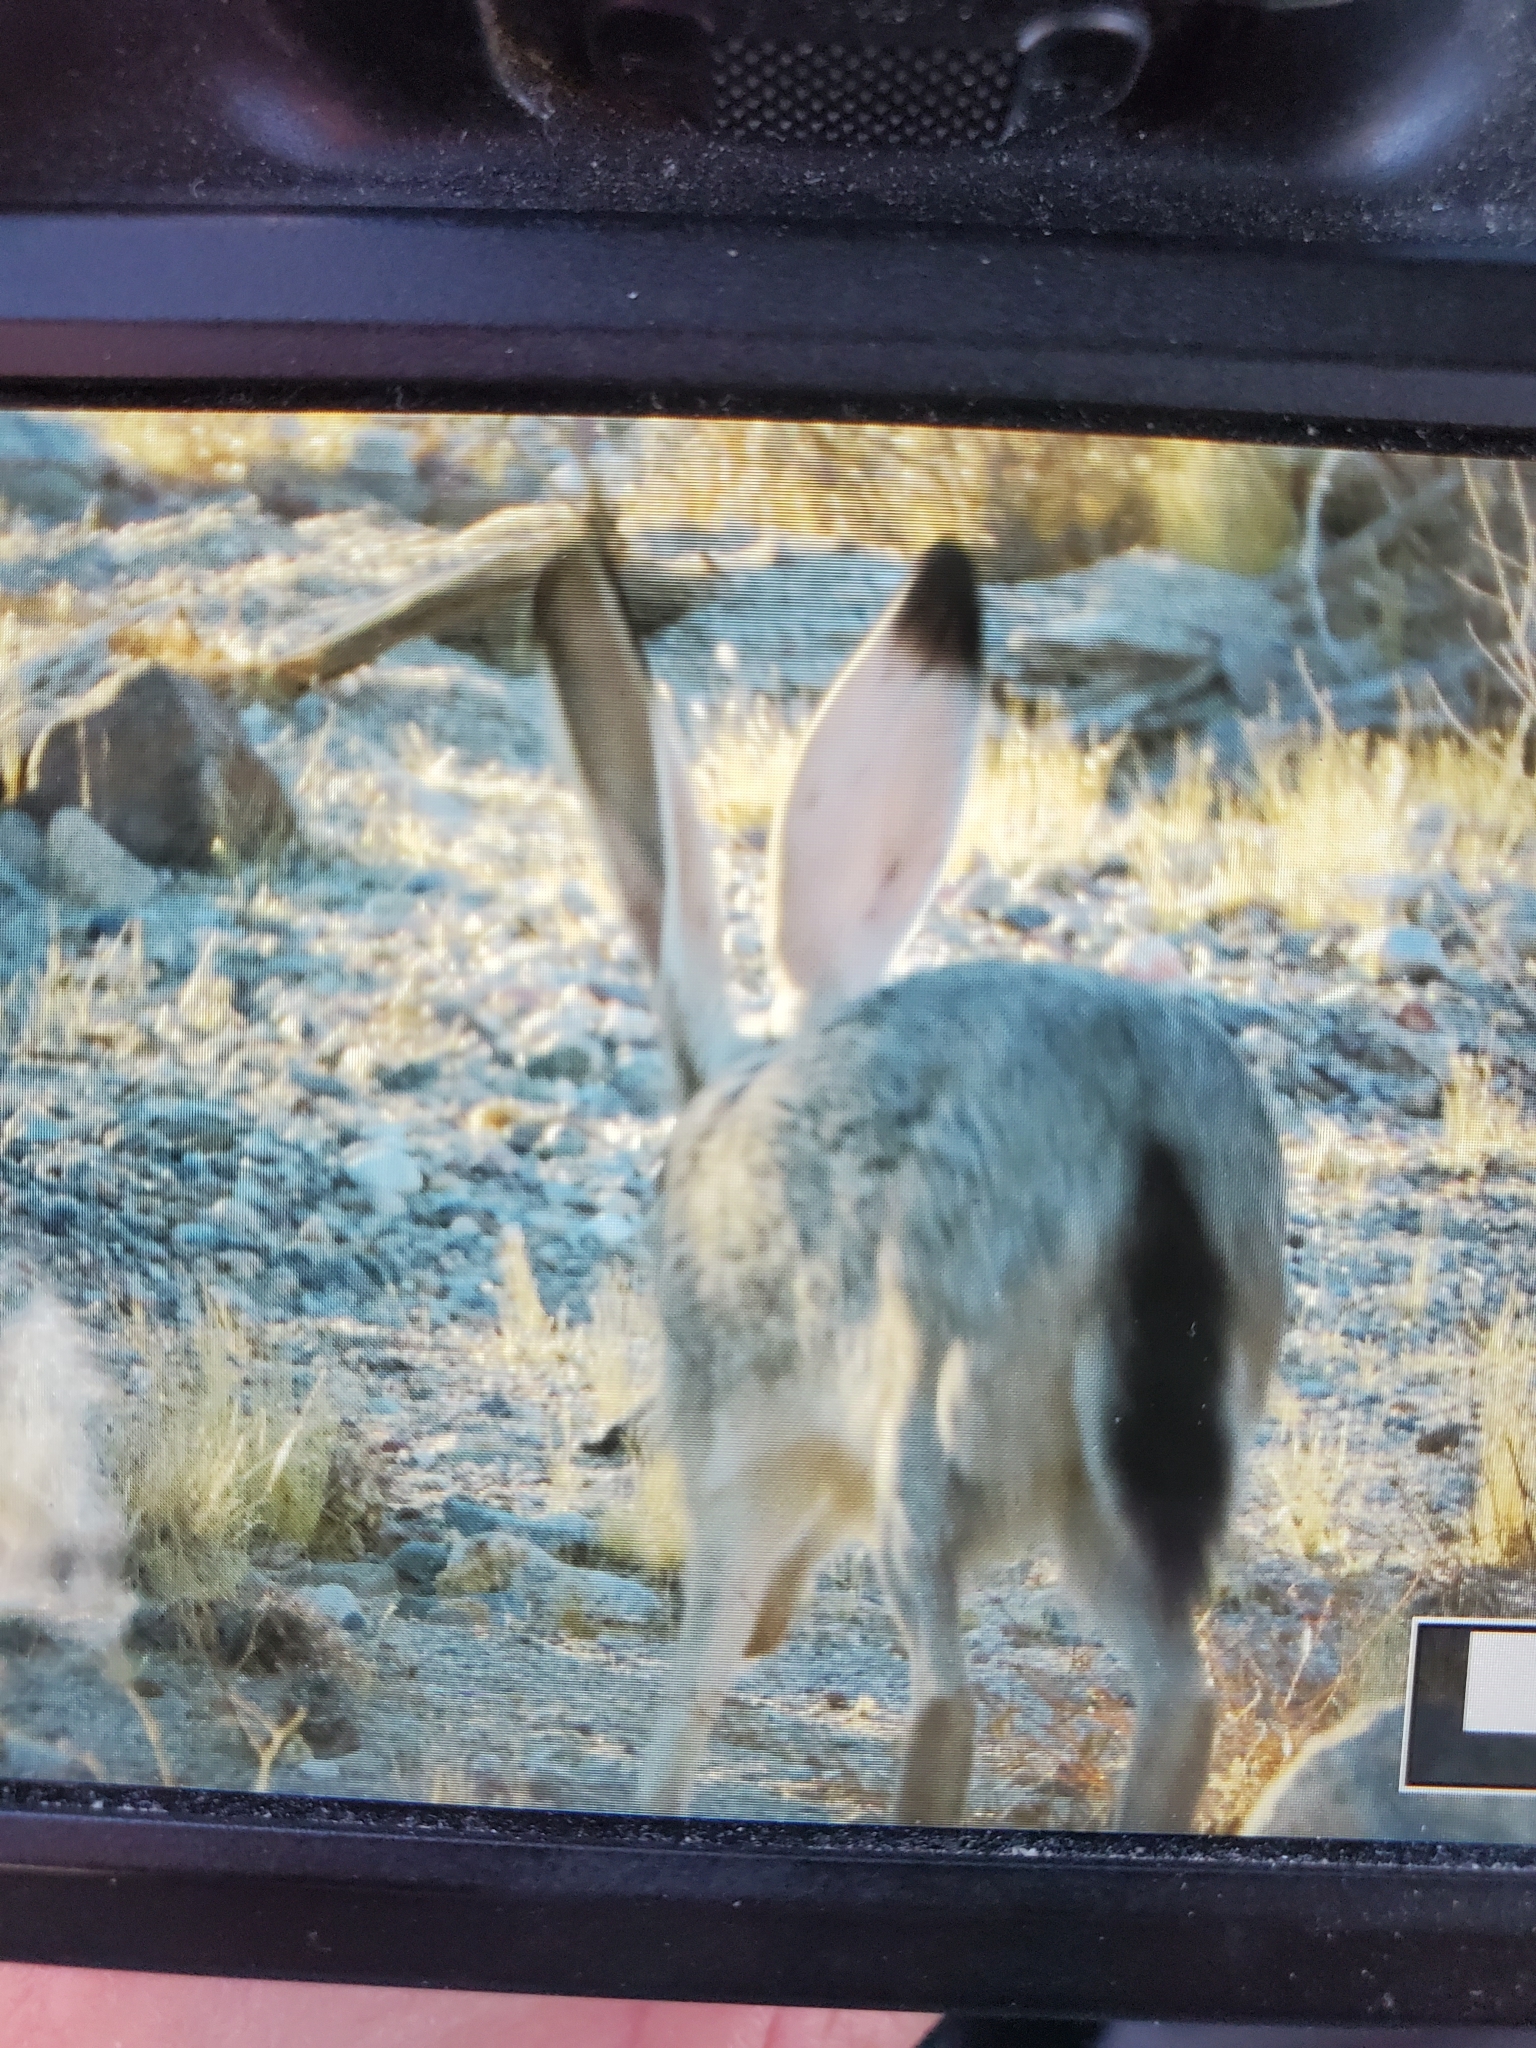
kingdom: Animalia
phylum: Chordata
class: Mammalia
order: Lagomorpha
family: Leporidae
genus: Lepus
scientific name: Lepus californicus
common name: Black-tailed jackrabbit
